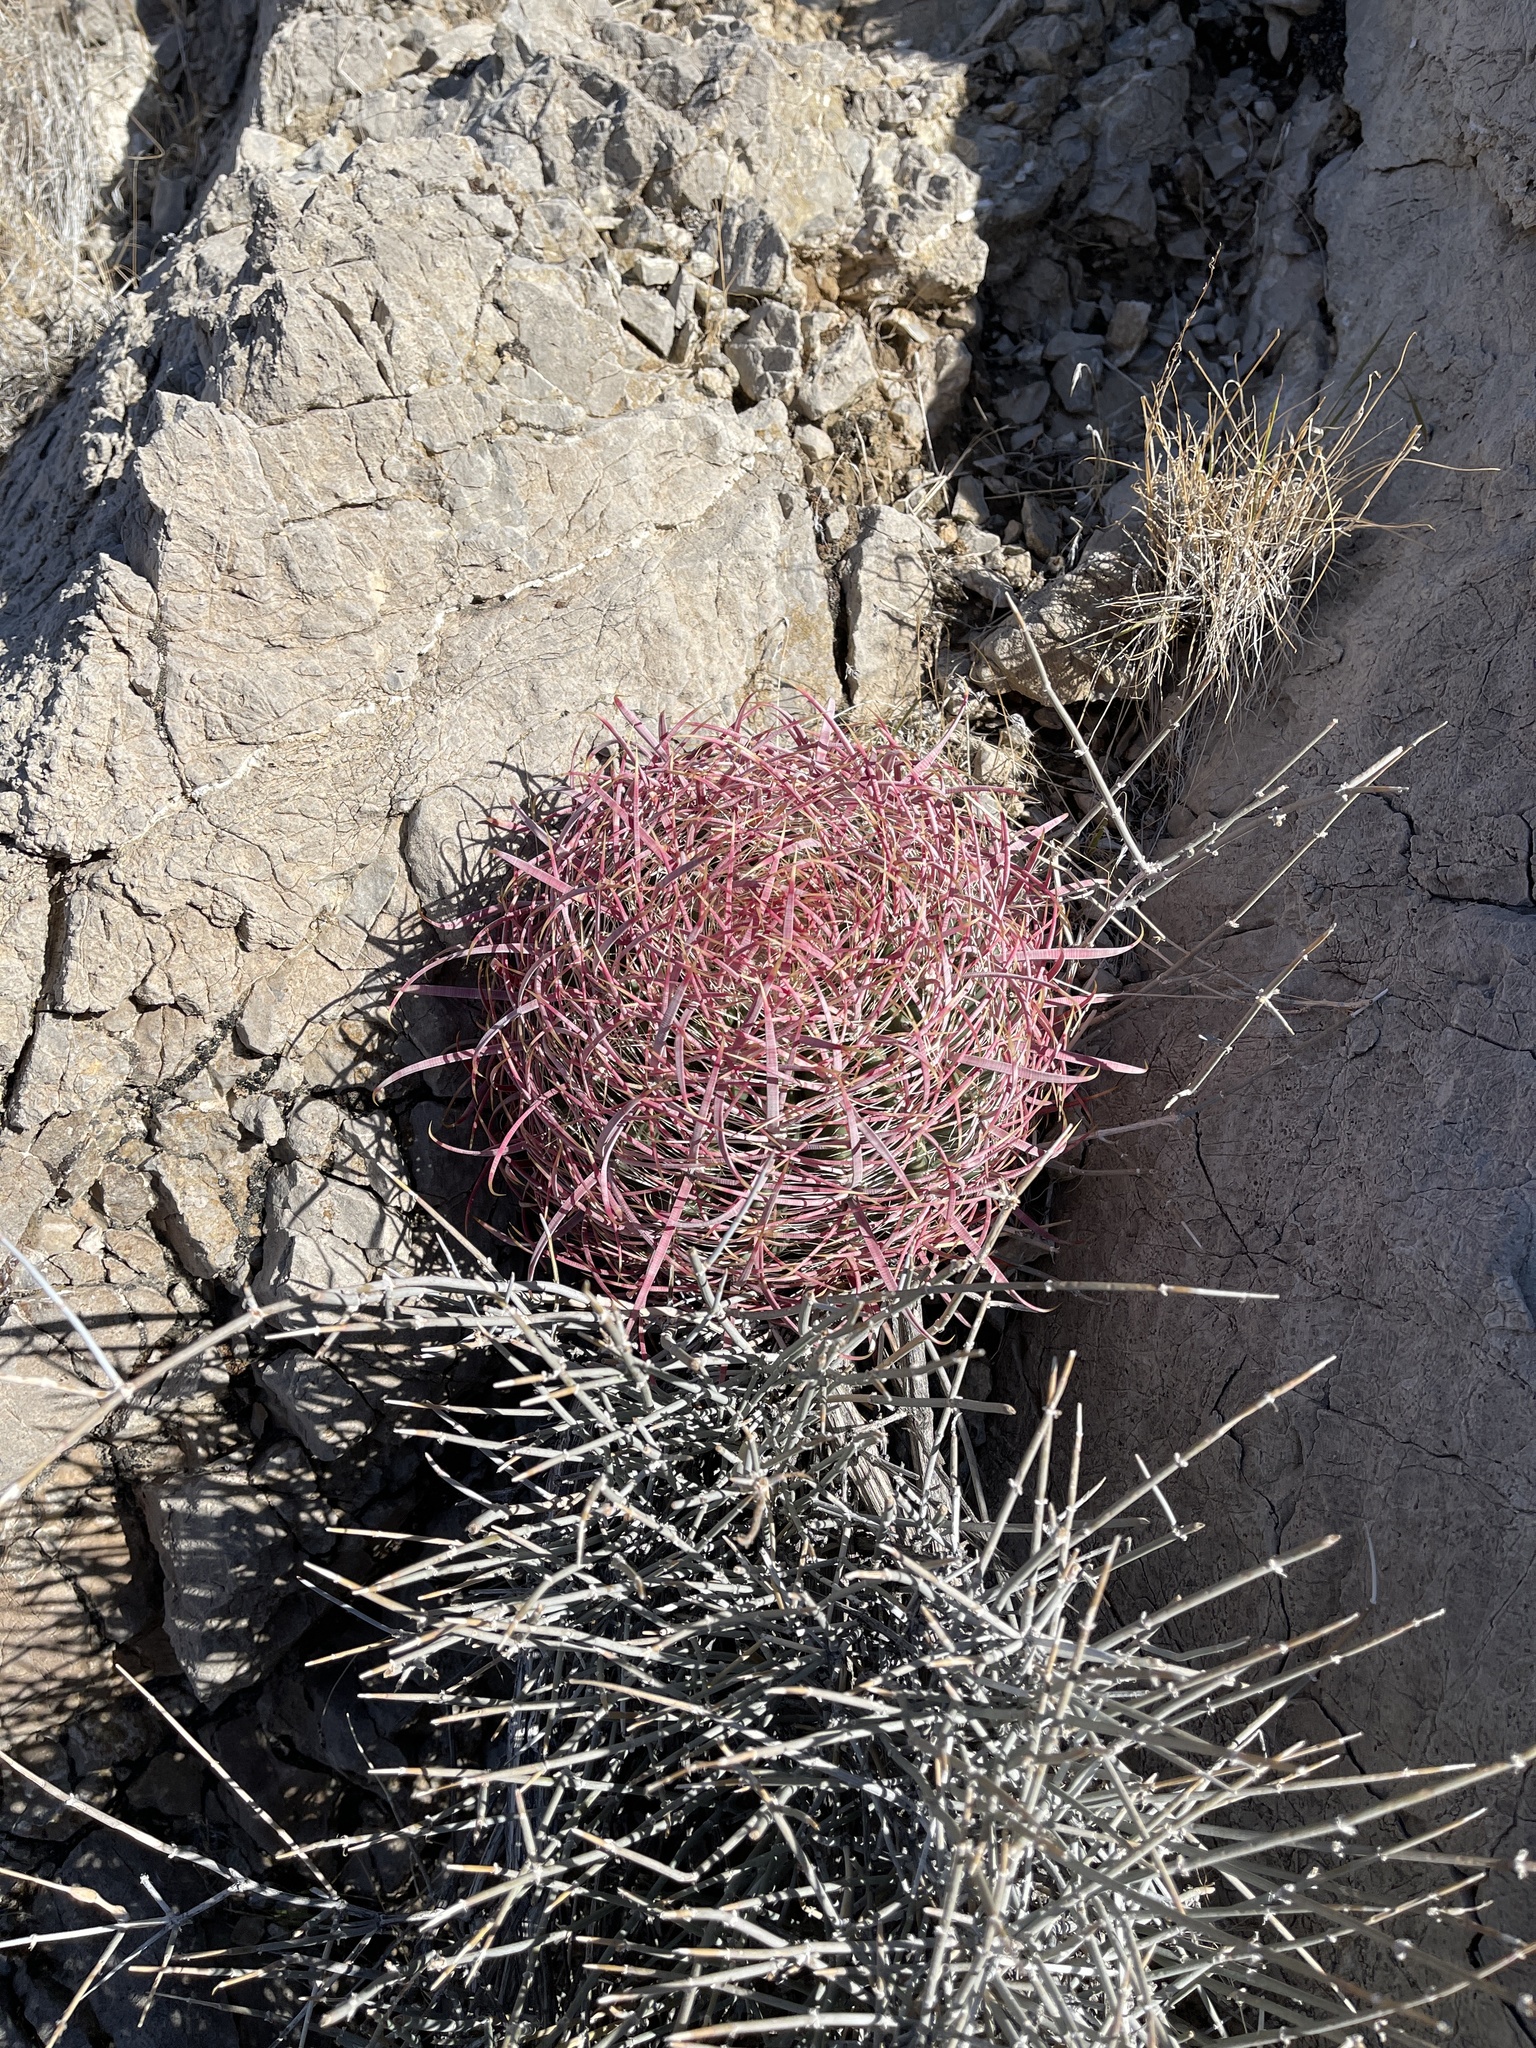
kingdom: Plantae
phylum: Tracheophyta
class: Magnoliopsida
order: Caryophyllales
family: Cactaceae
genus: Ferocactus
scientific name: Ferocactus cylindraceus
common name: California barrel cactus
